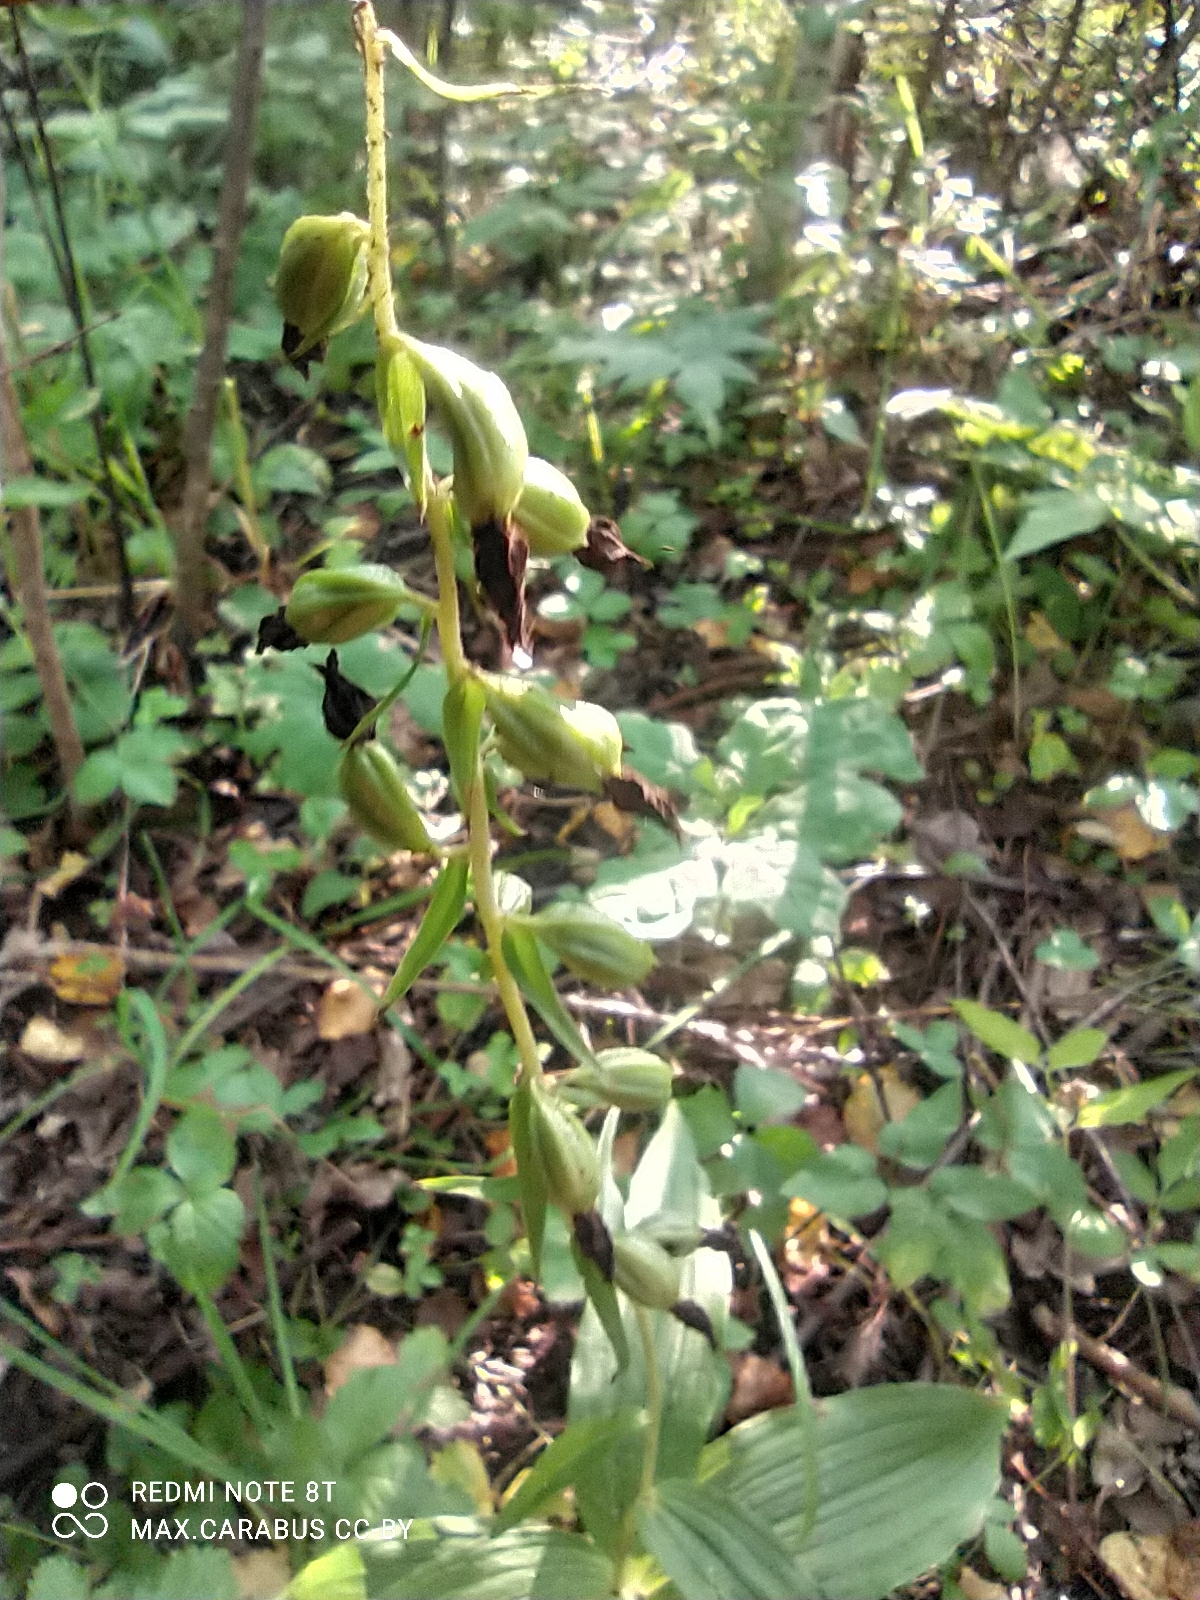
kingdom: Plantae
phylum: Tracheophyta
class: Liliopsida
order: Asparagales
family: Orchidaceae
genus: Epipactis
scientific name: Epipactis helleborine
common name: Broad-leaved helleborine
